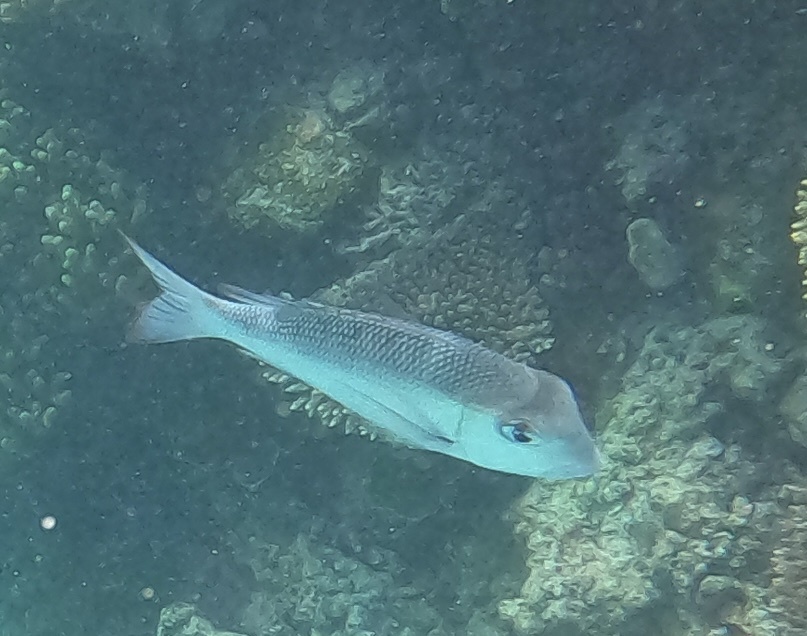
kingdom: Animalia
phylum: Chordata
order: Perciformes
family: Lethrinidae
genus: Monotaxis
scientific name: Monotaxis grandoculis
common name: Bigeye emperor
